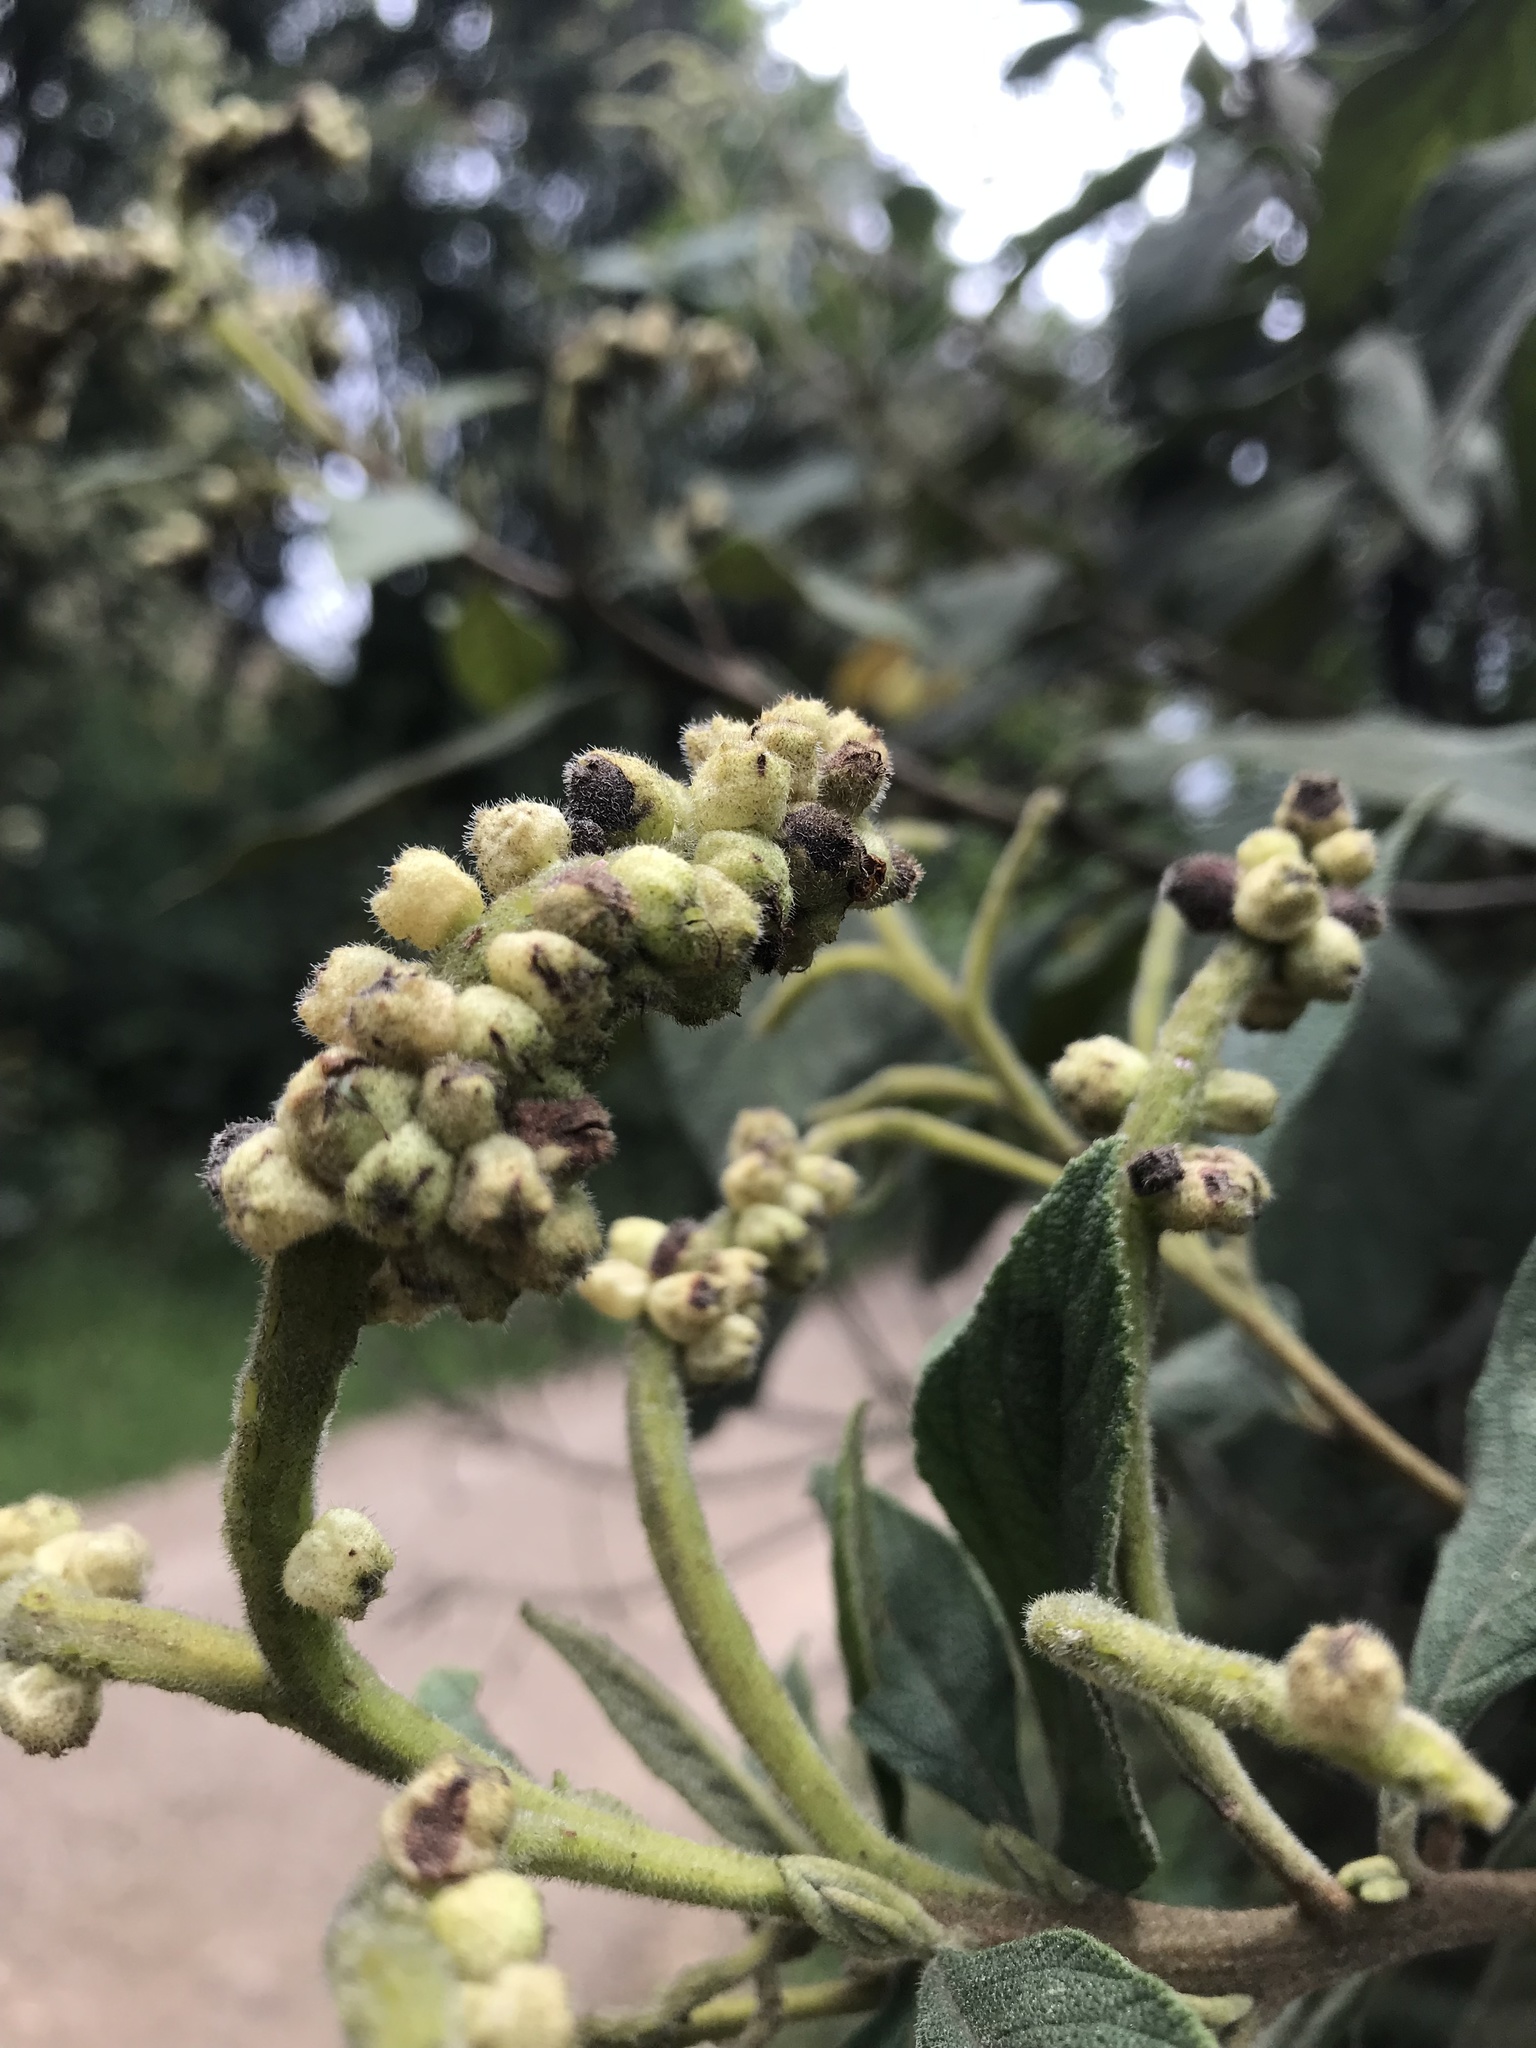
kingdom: Plantae
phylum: Tracheophyta
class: Magnoliopsida
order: Boraginales
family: Cordiaceae
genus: Varronia
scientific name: Varronia cylindrostachya
